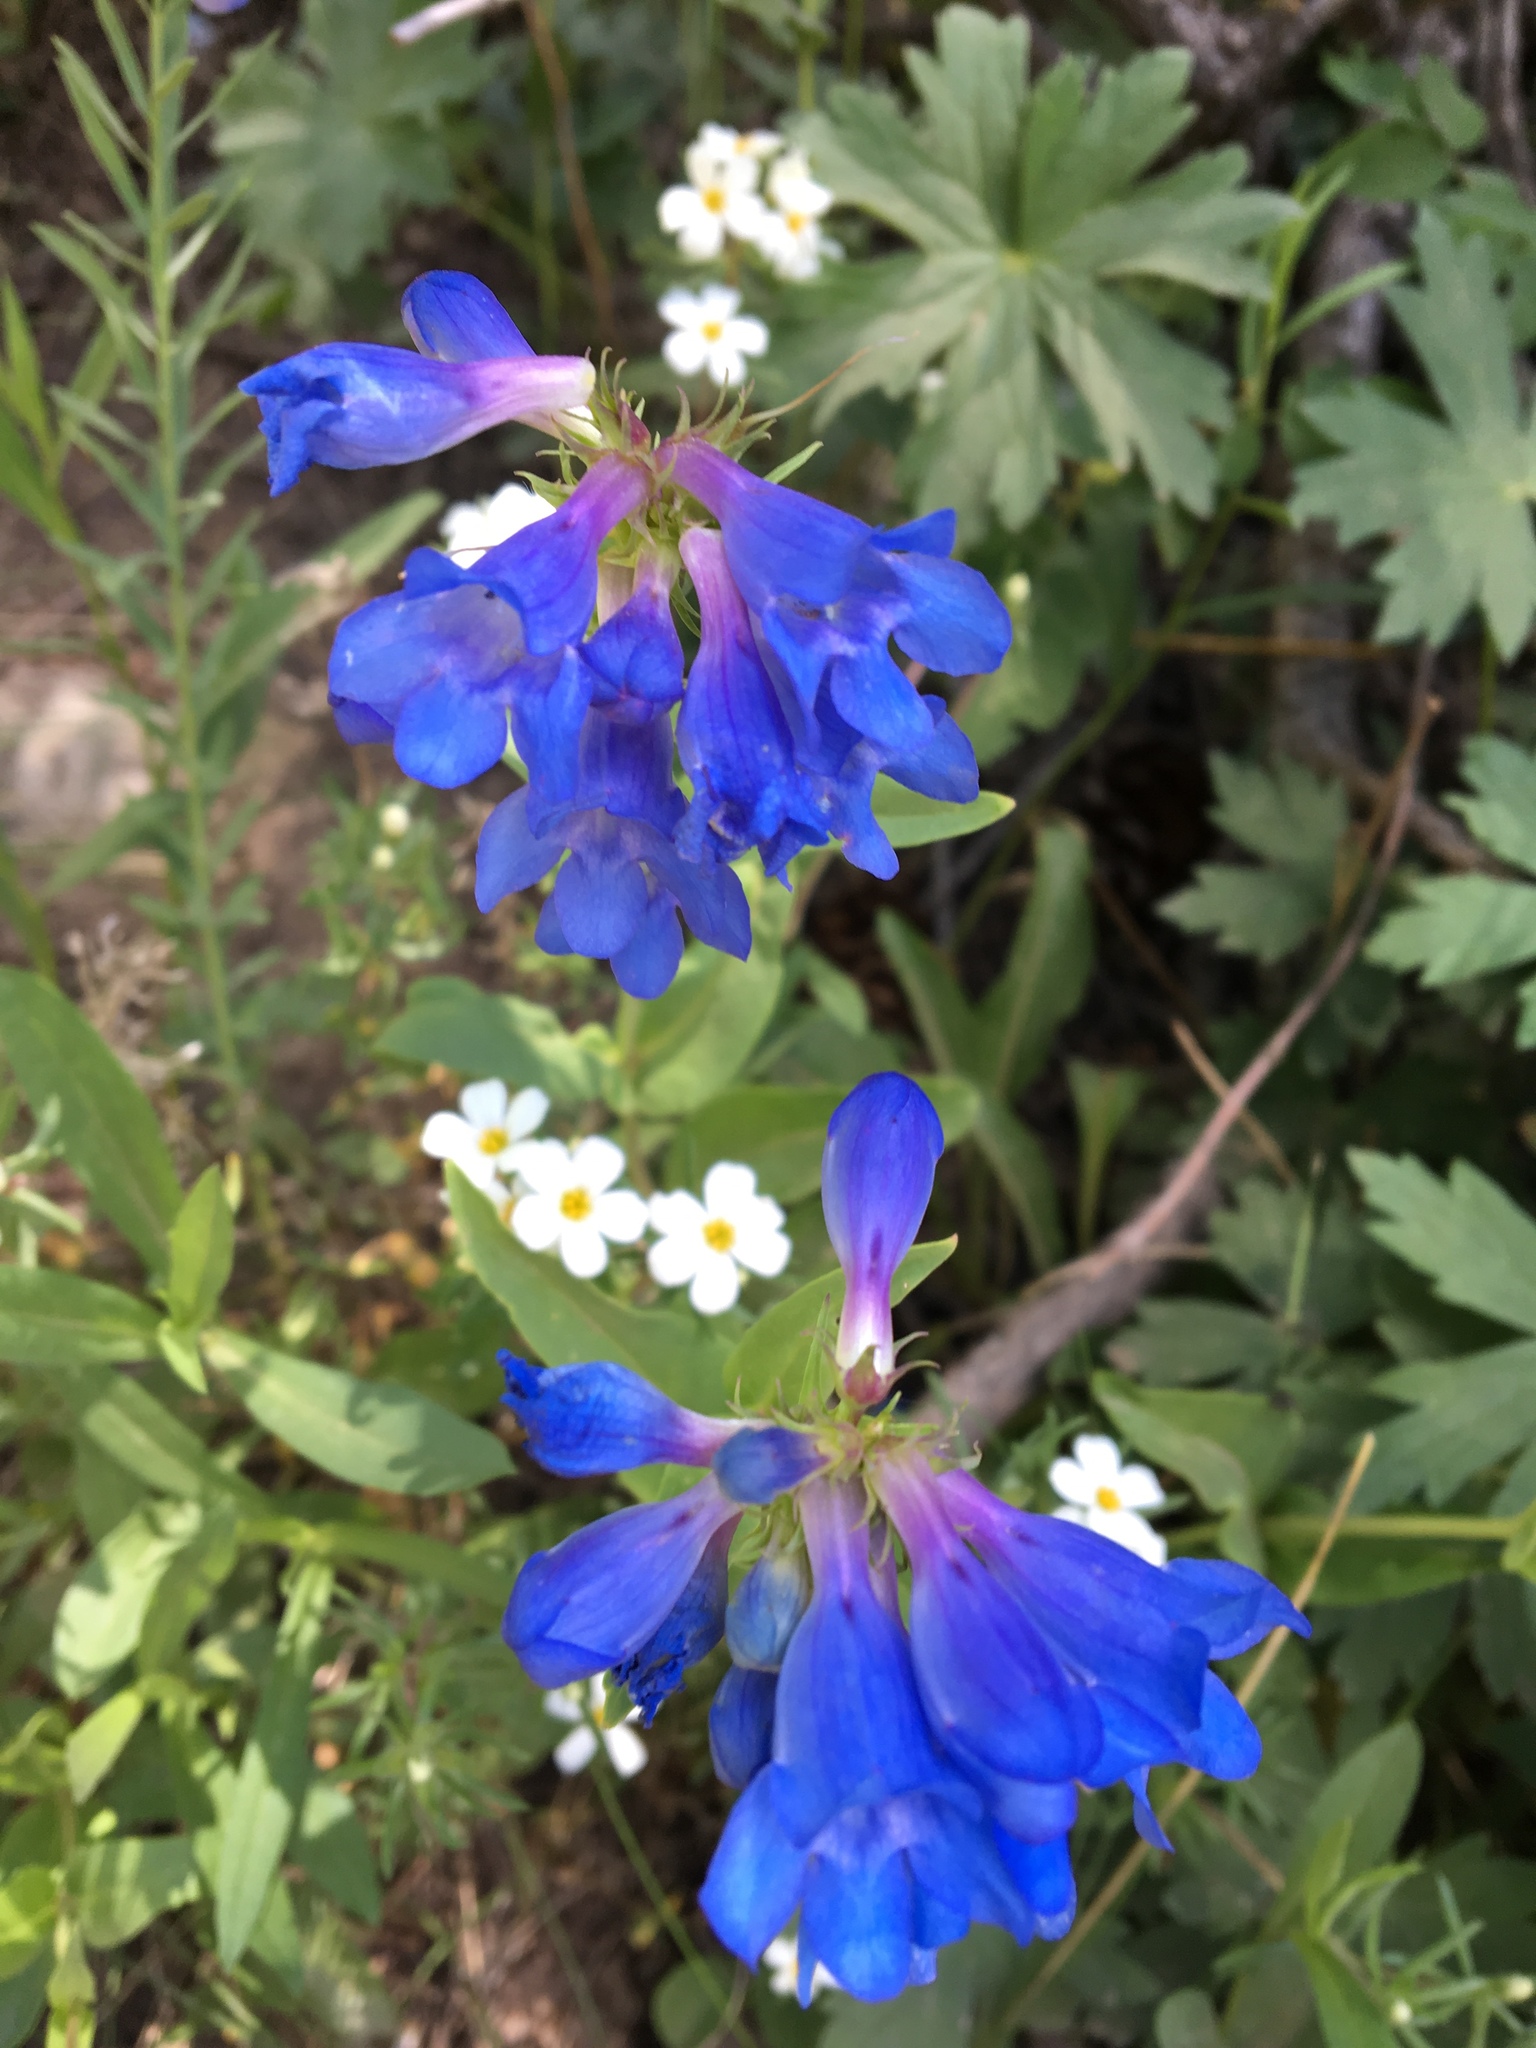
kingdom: Plantae
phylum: Tracheophyta
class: Magnoliopsida
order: Lamiales
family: Plantaginaceae
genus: Penstemon
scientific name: Penstemon cyananthus
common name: Wasatch penstemon
